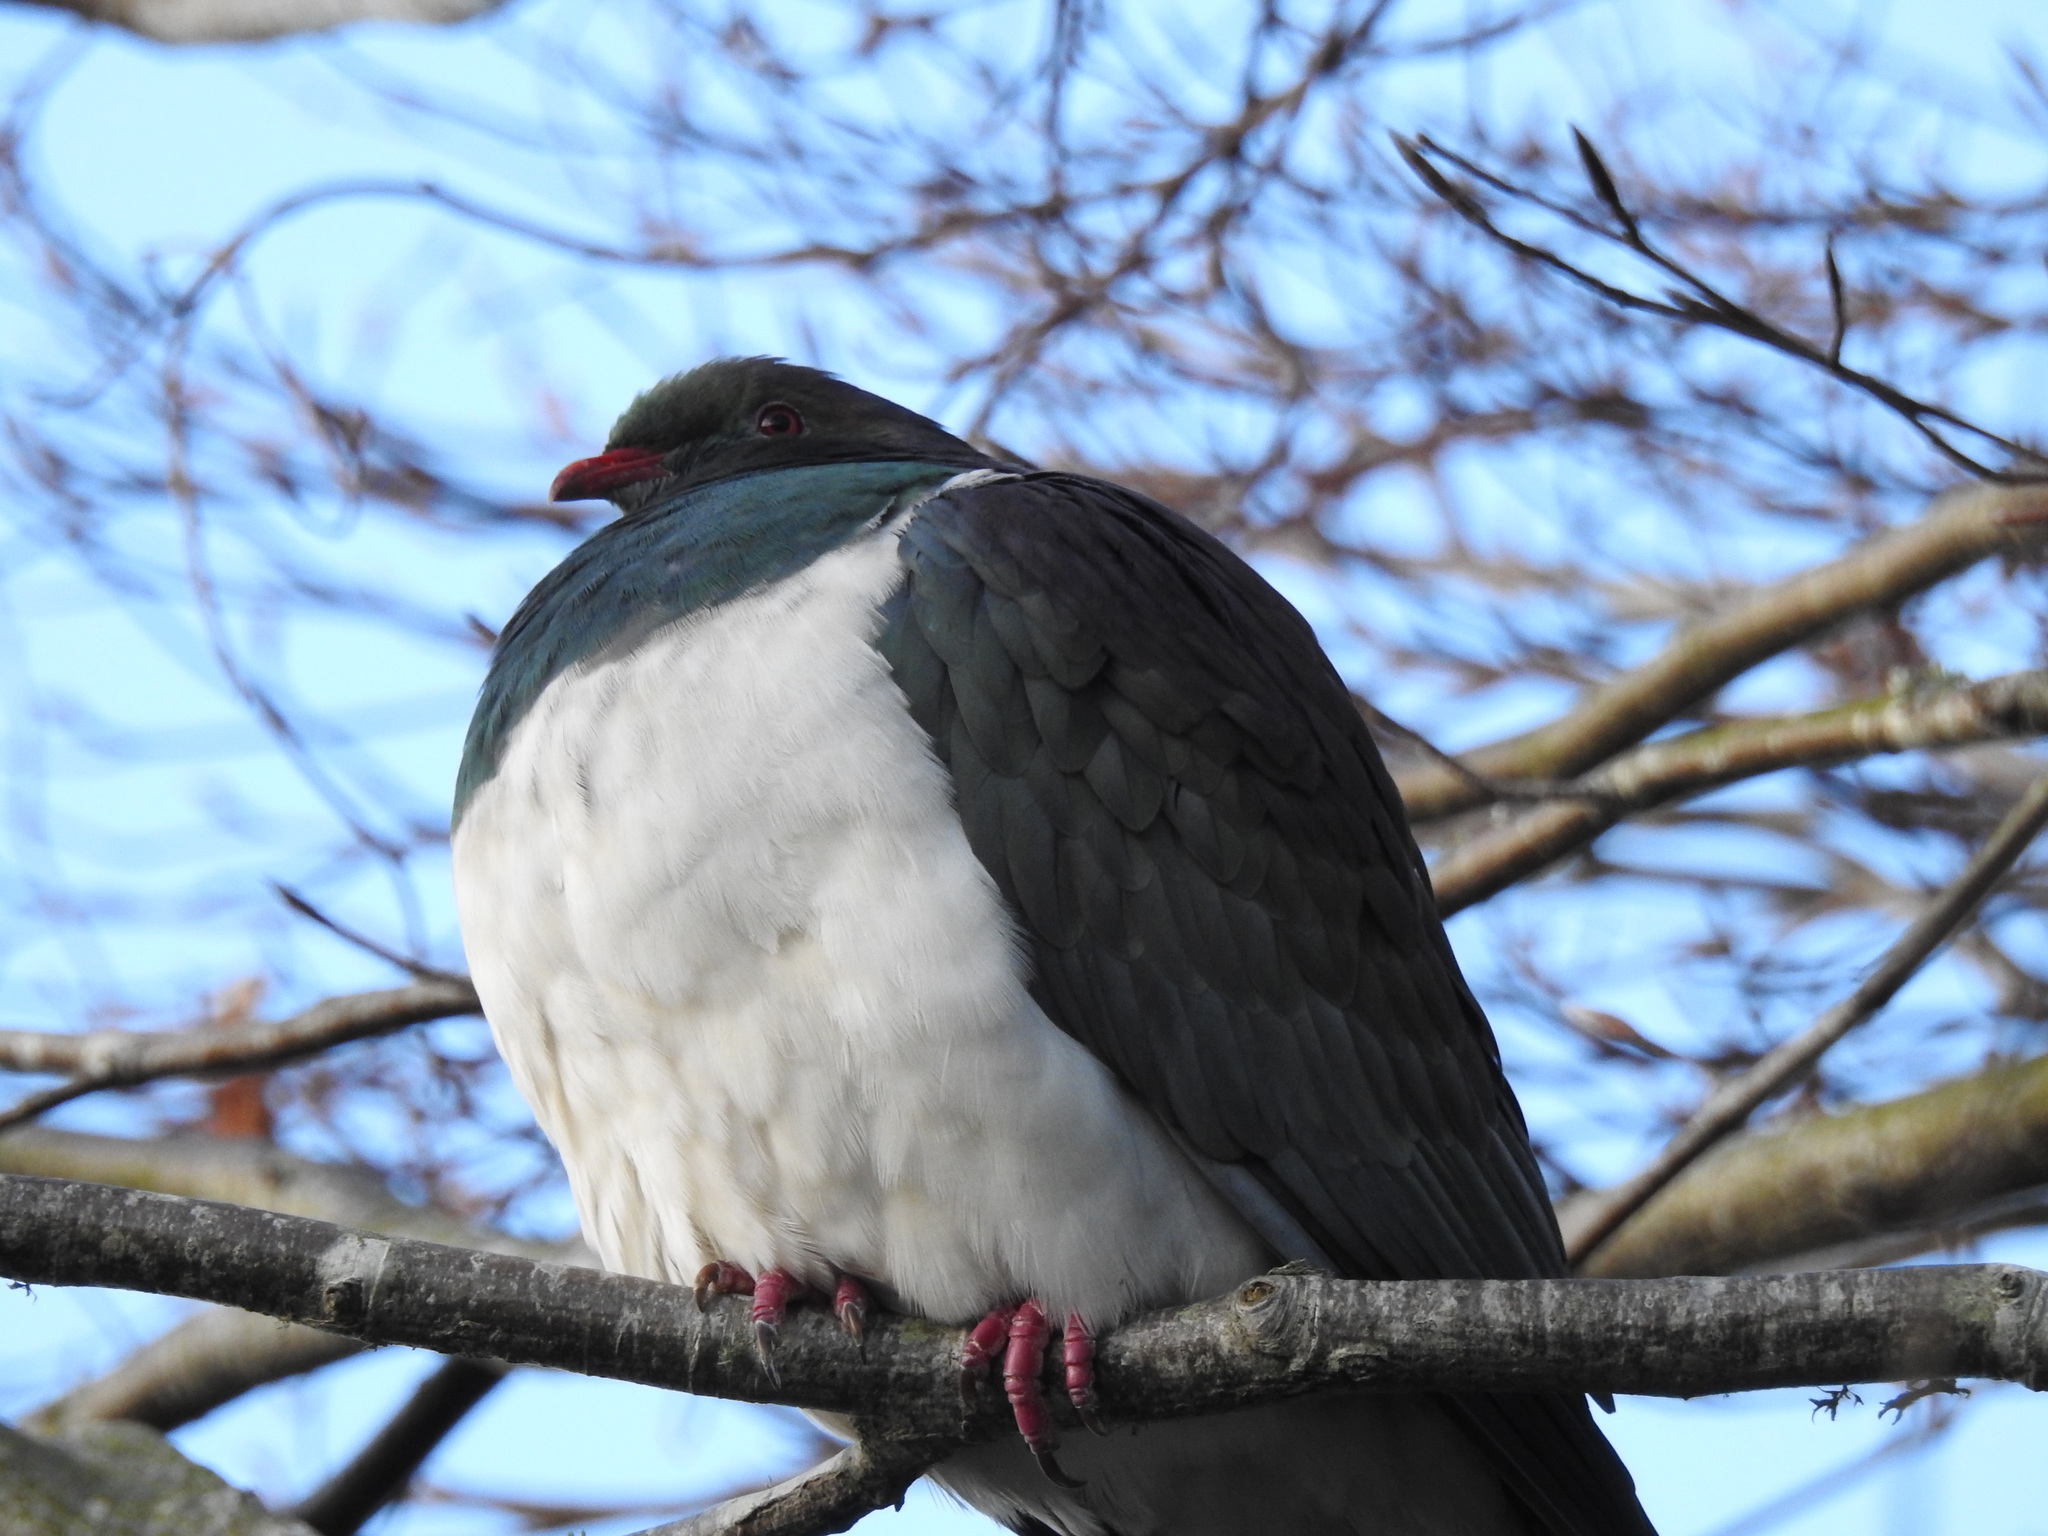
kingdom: Animalia
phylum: Chordata
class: Aves
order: Columbiformes
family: Columbidae
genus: Hemiphaga
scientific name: Hemiphaga novaeseelandiae
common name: New zealand pigeon
